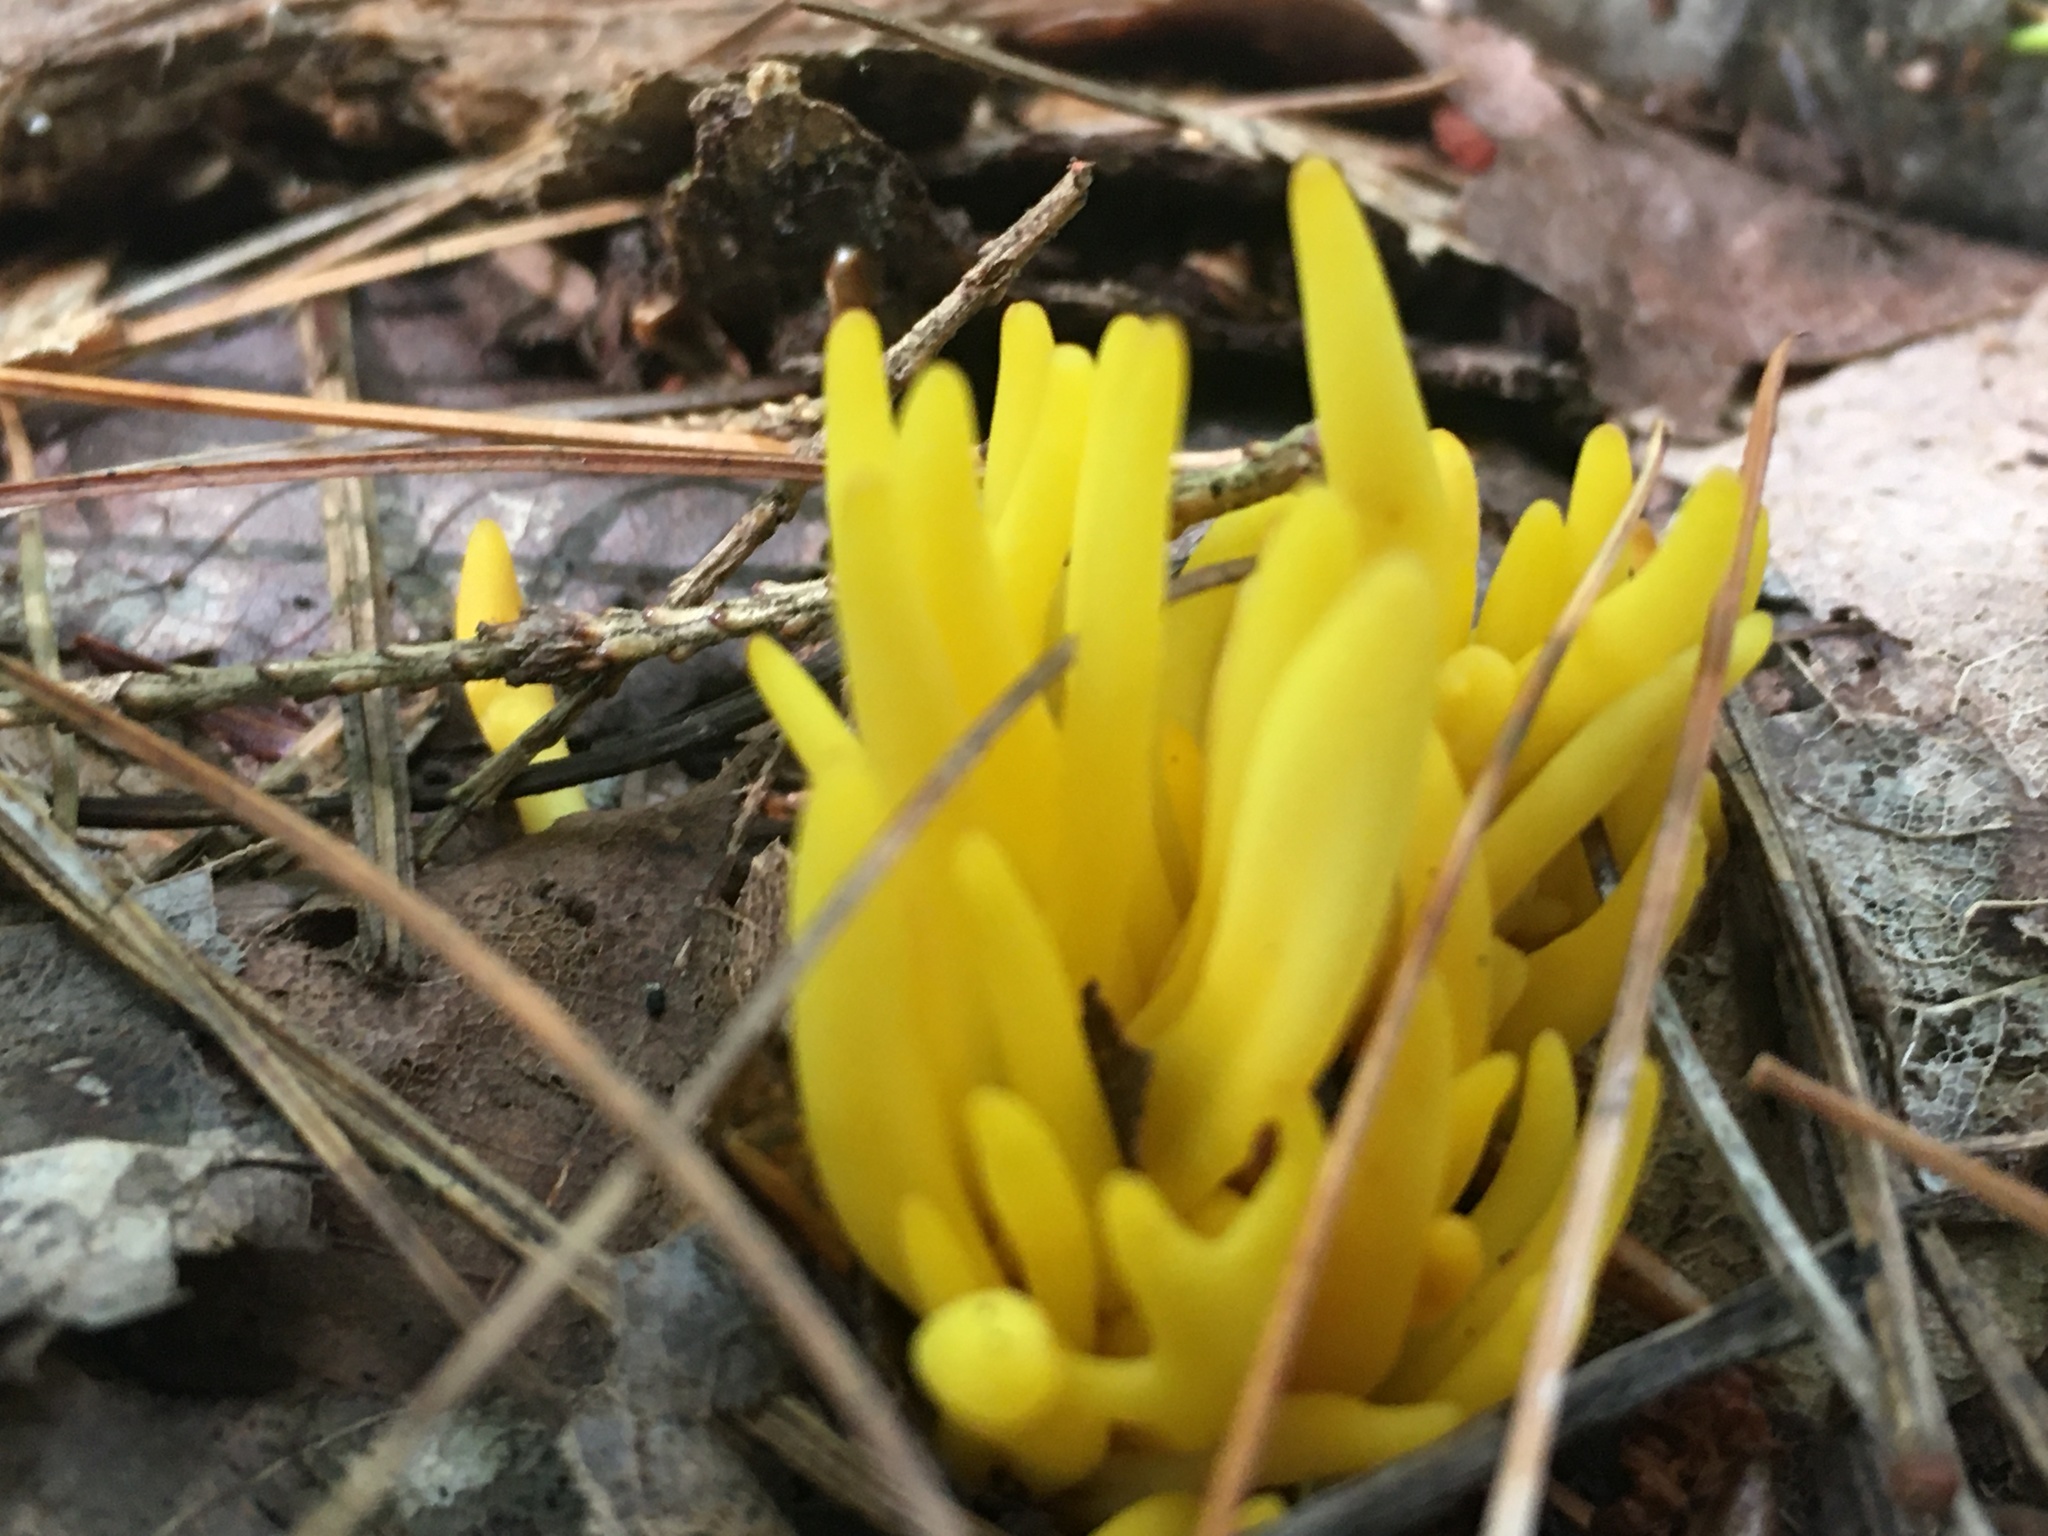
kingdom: Fungi
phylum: Basidiomycota
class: Agaricomycetes
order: Agaricales
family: Clavariaceae
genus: Clavulinopsis
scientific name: Clavulinopsis fusiformis
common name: Golden spindles
